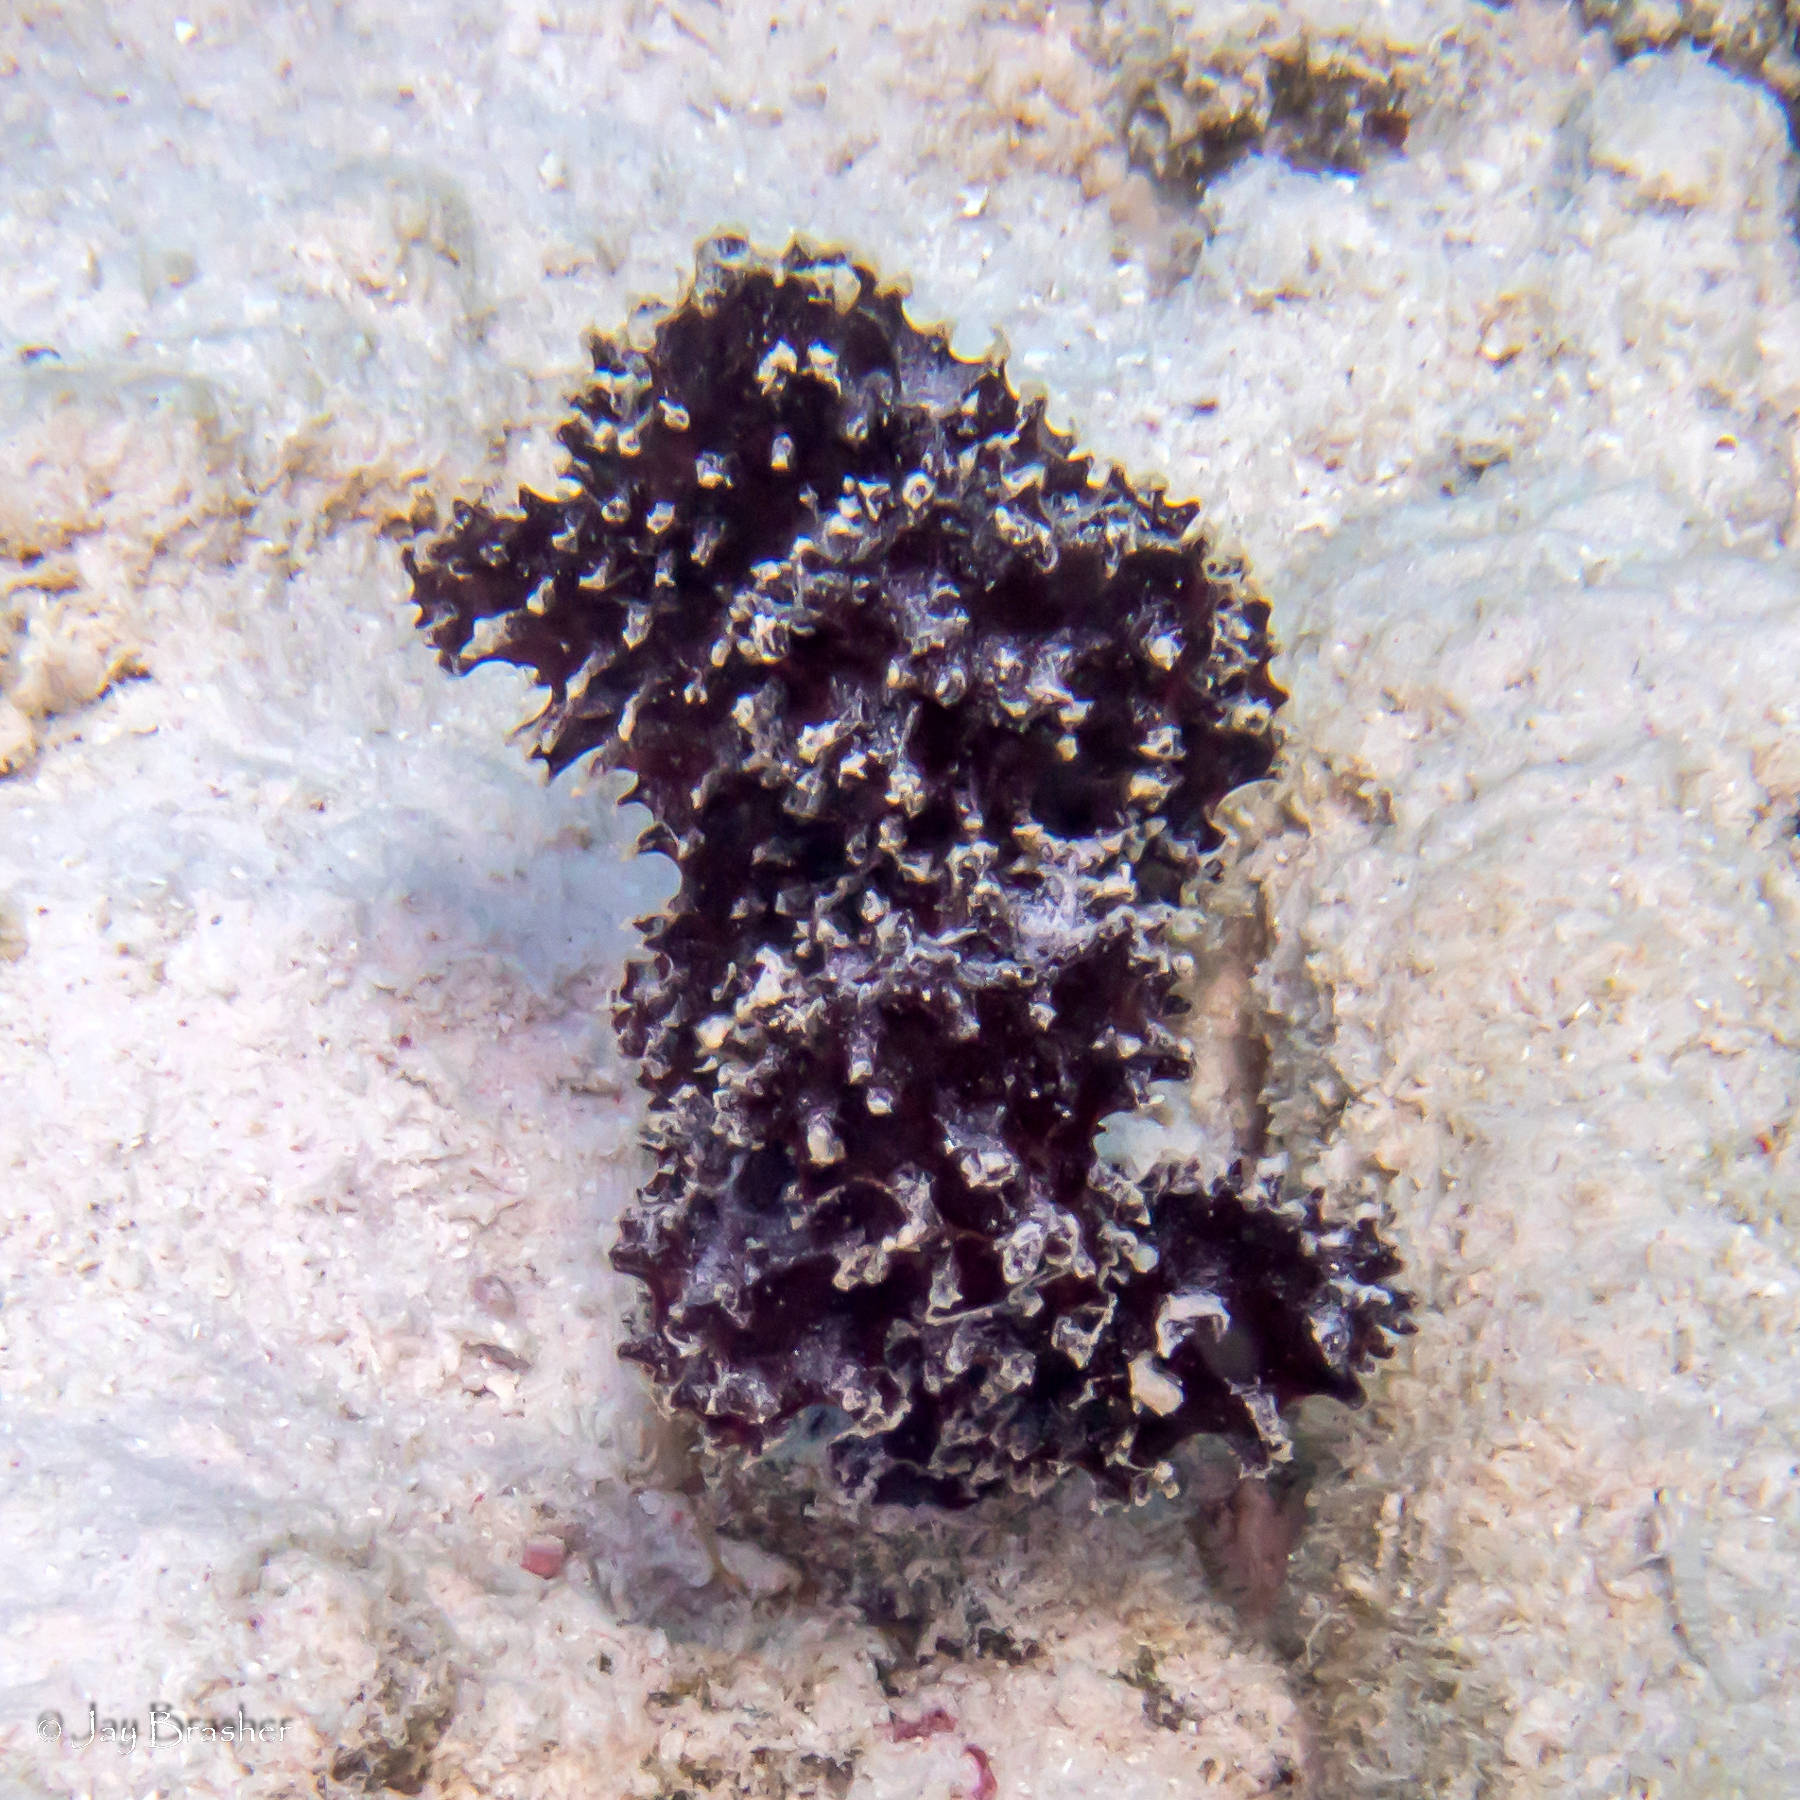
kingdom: Animalia
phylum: Porifera
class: Demospongiae
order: Poecilosclerida
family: Microcionidae
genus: Pandaros
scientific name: Pandaros acanthifolium
